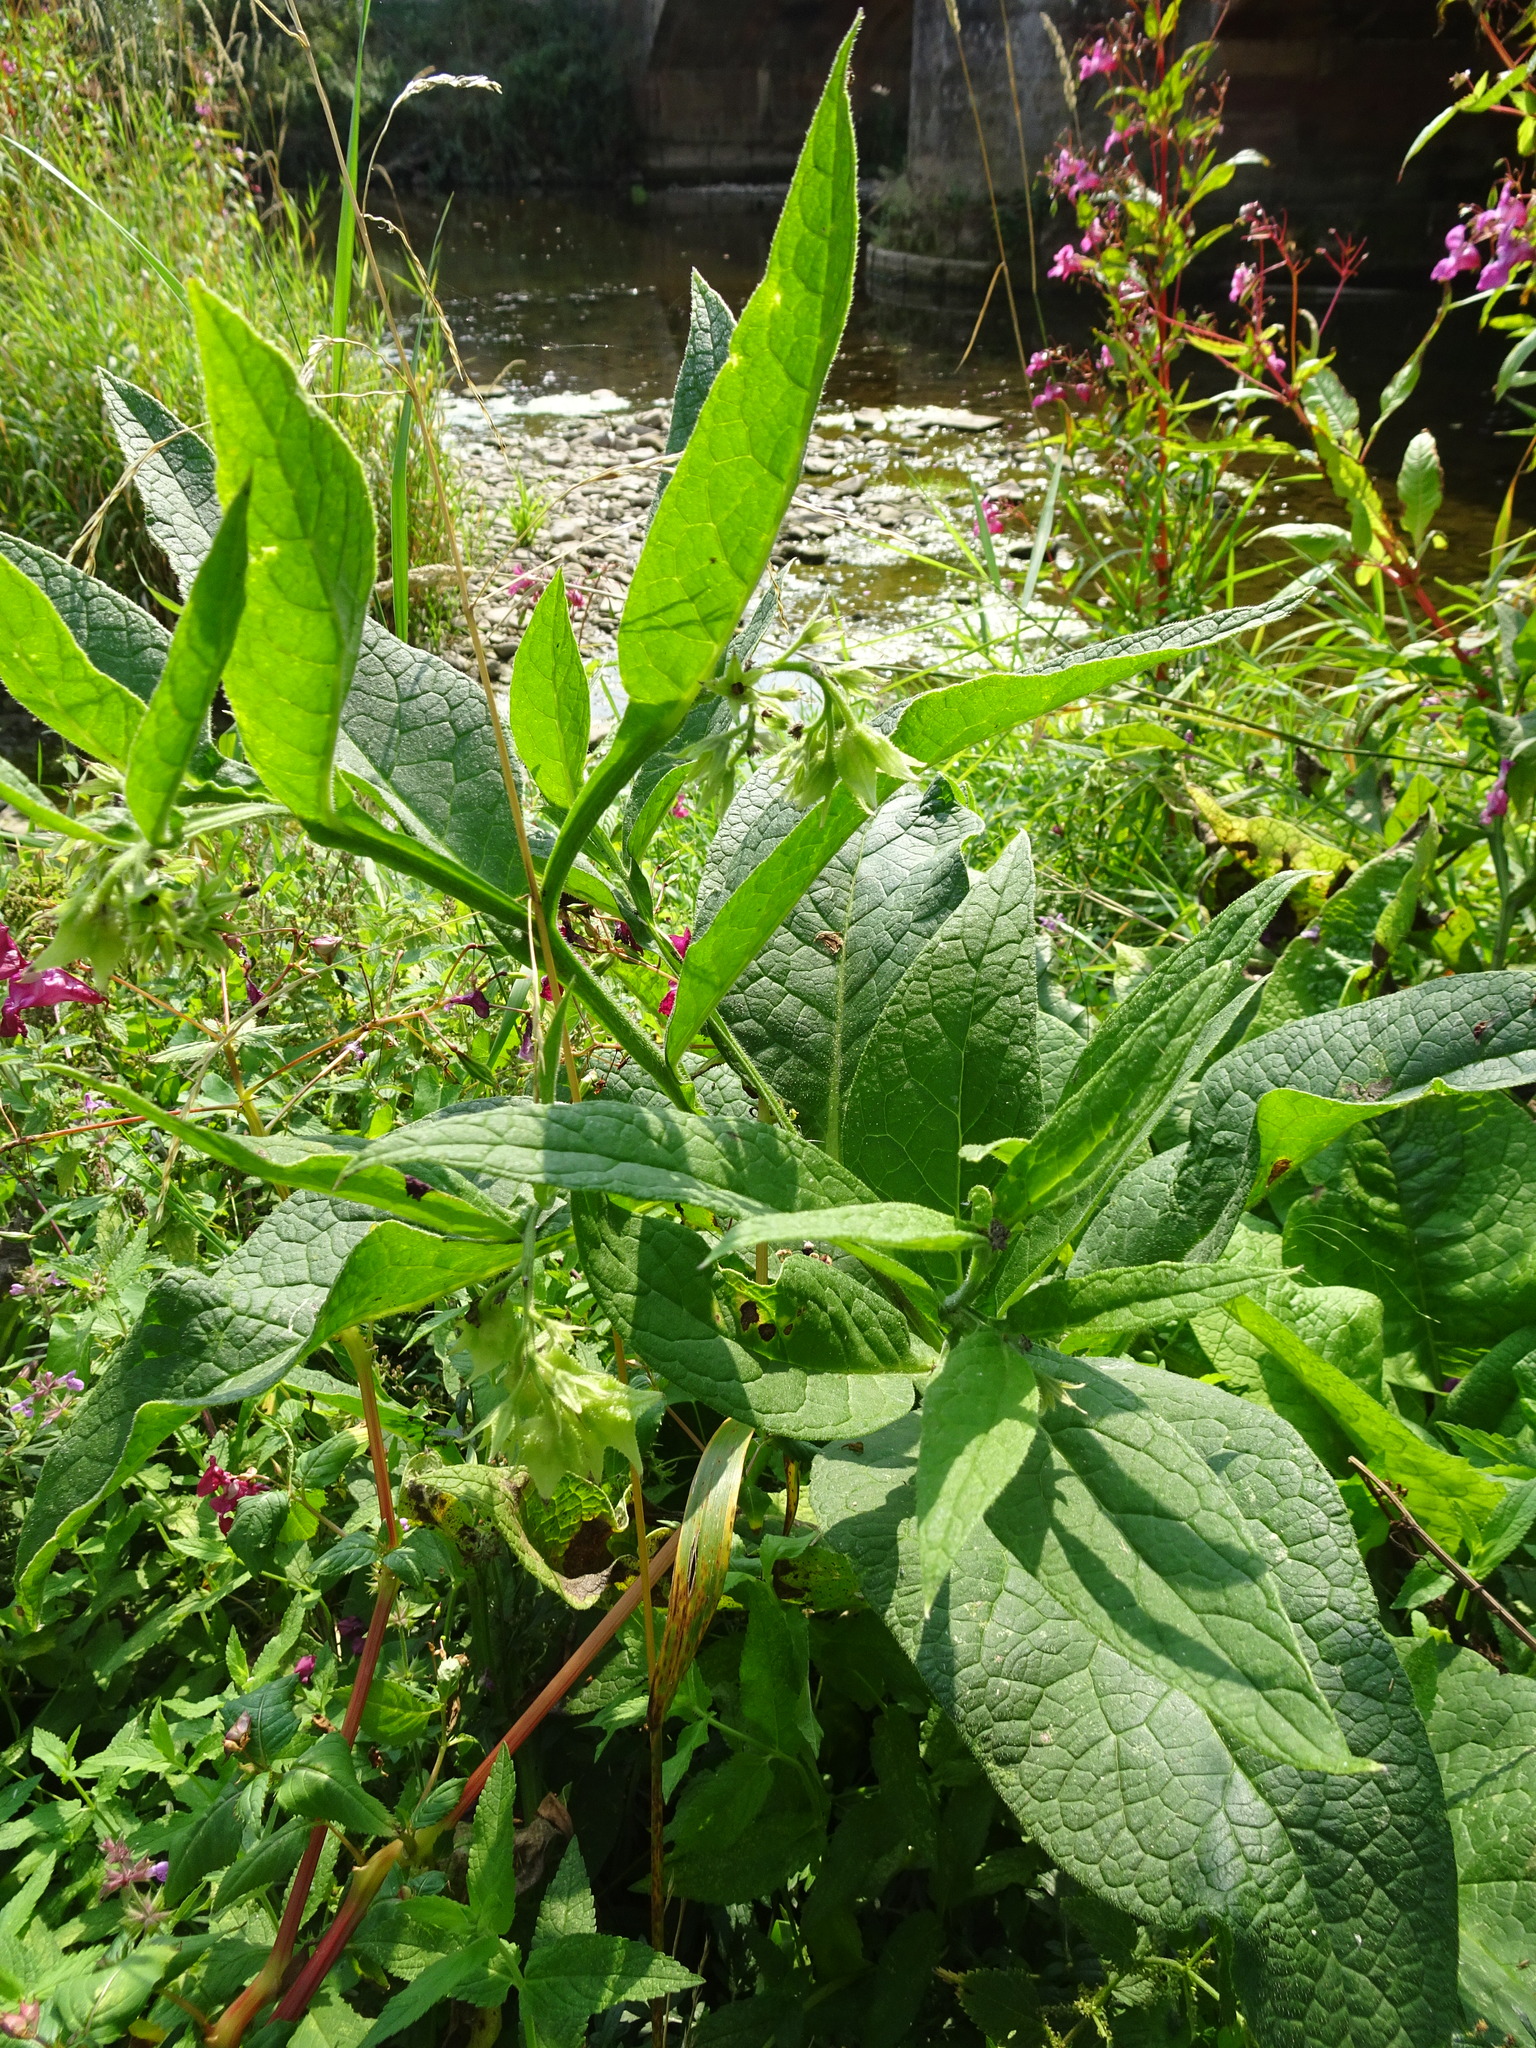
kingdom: Plantae
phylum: Tracheophyta
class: Magnoliopsida
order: Boraginales
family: Boraginaceae
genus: Symphytum
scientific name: Symphytum officinale
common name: Common comfrey
